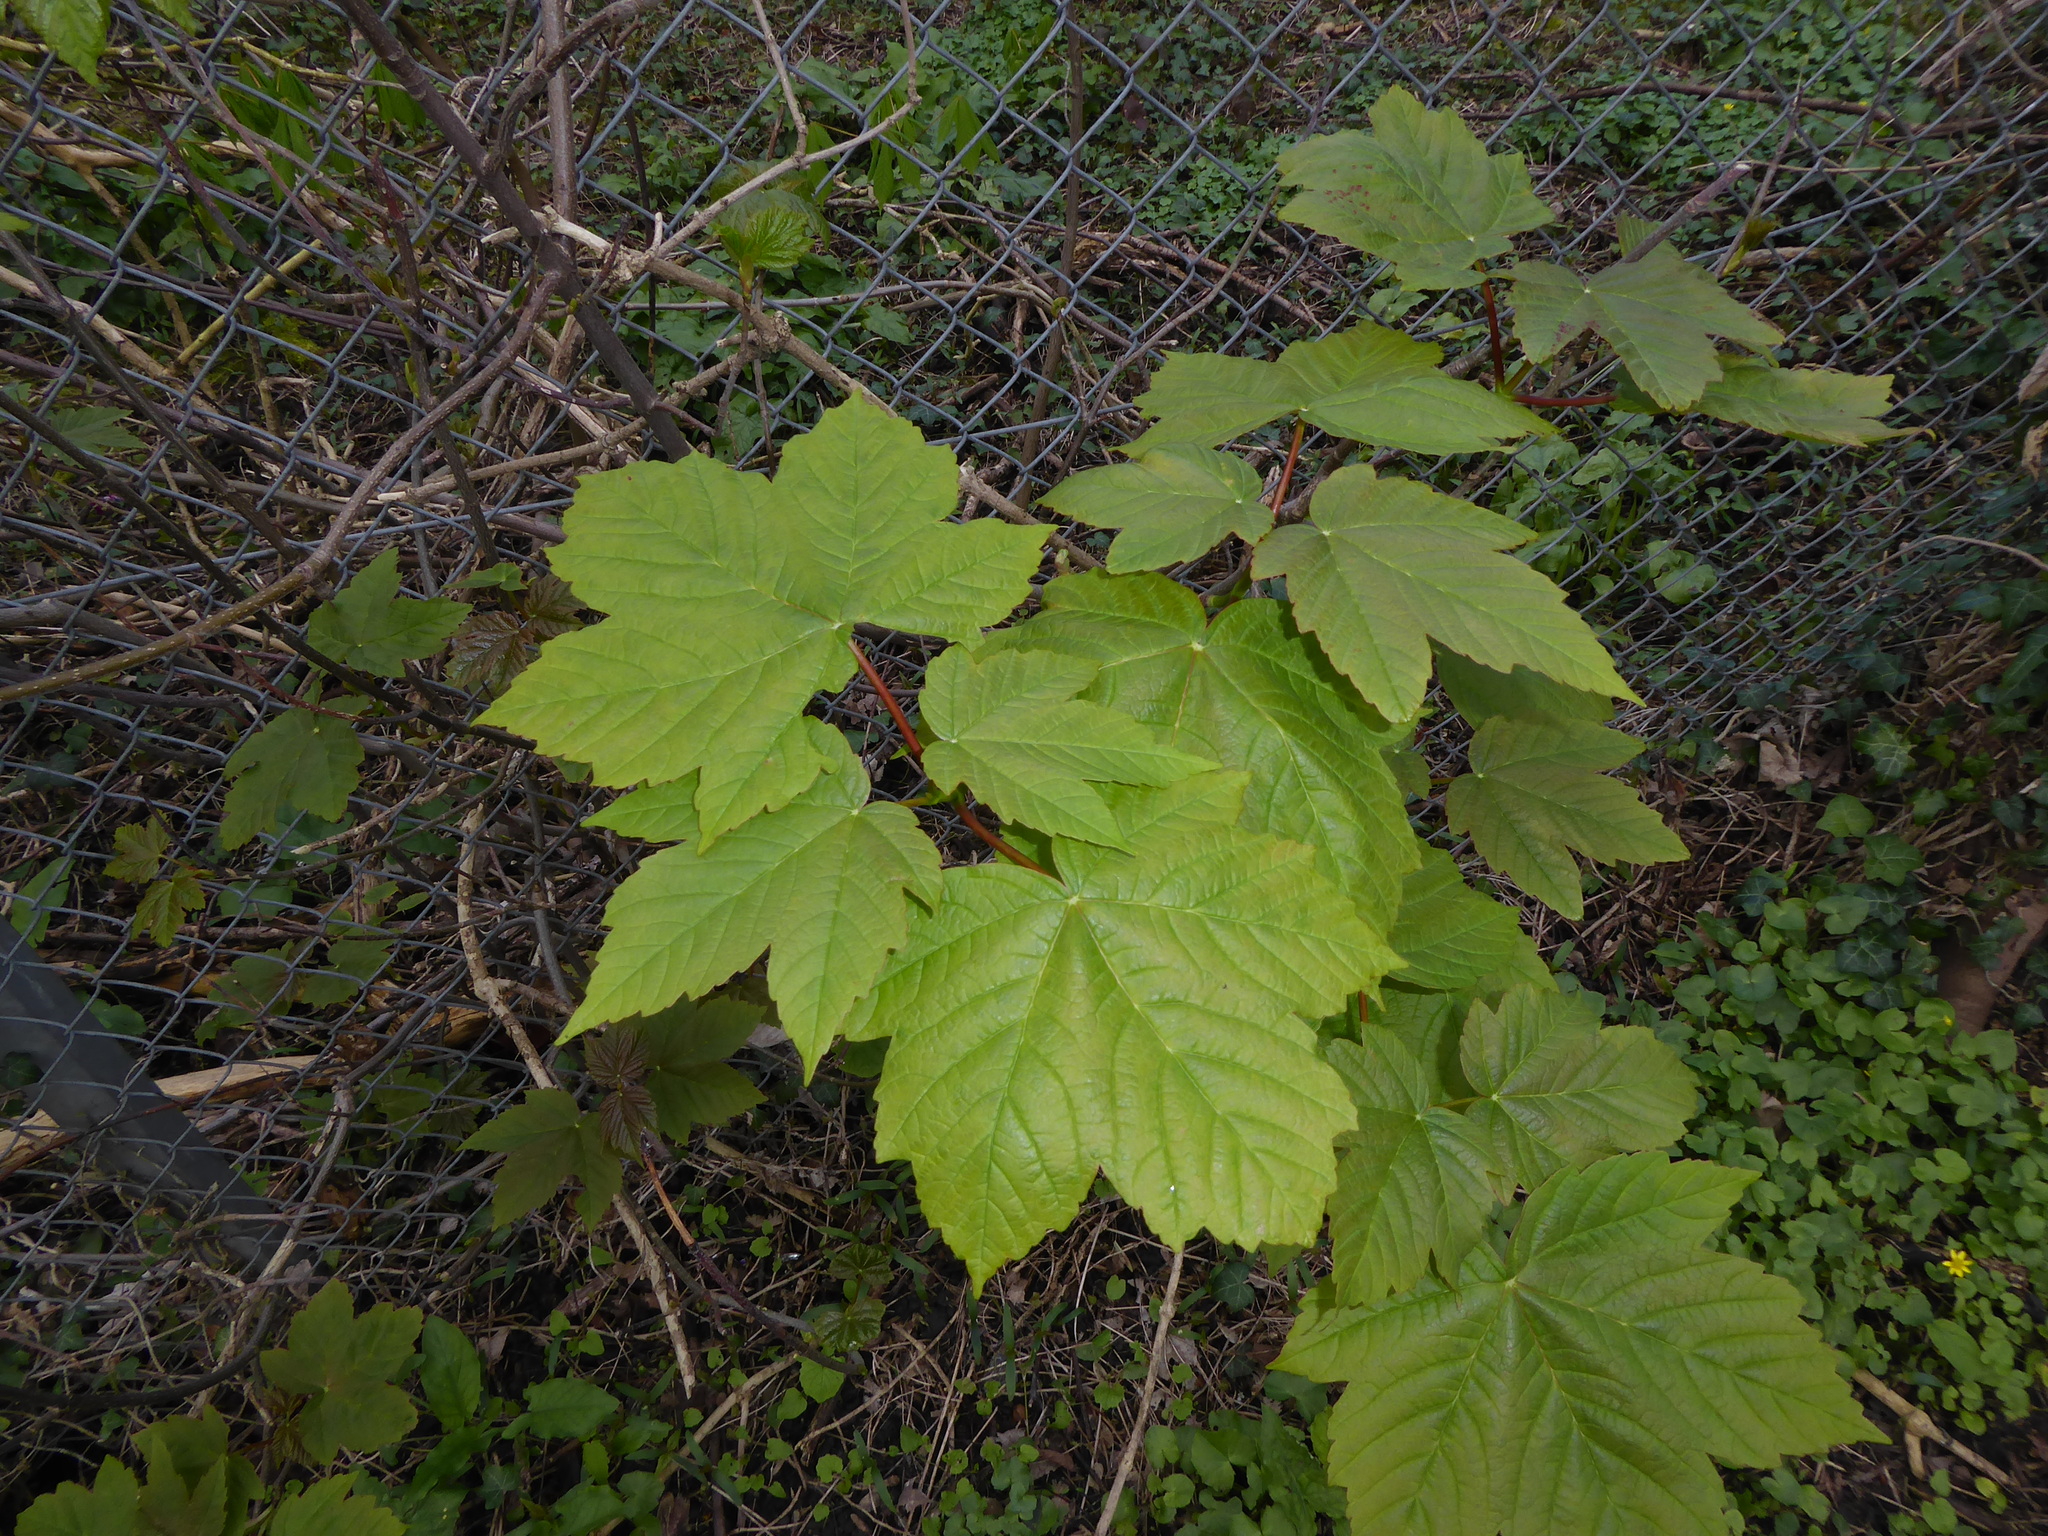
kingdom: Plantae
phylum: Tracheophyta
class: Magnoliopsida
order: Sapindales
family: Sapindaceae
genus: Acer
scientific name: Acer pseudoplatanus
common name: Sycamore
